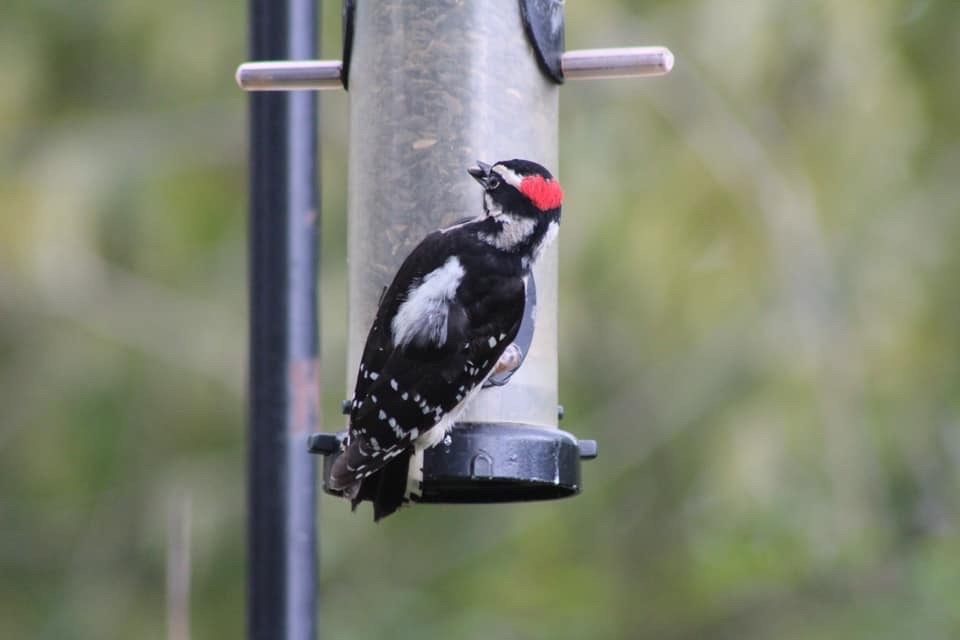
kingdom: Animalia
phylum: Chordata
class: Aves
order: Piciformes
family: Picidae
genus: Dryobates
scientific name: Dryobates pubescens
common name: Downy woodpecker
